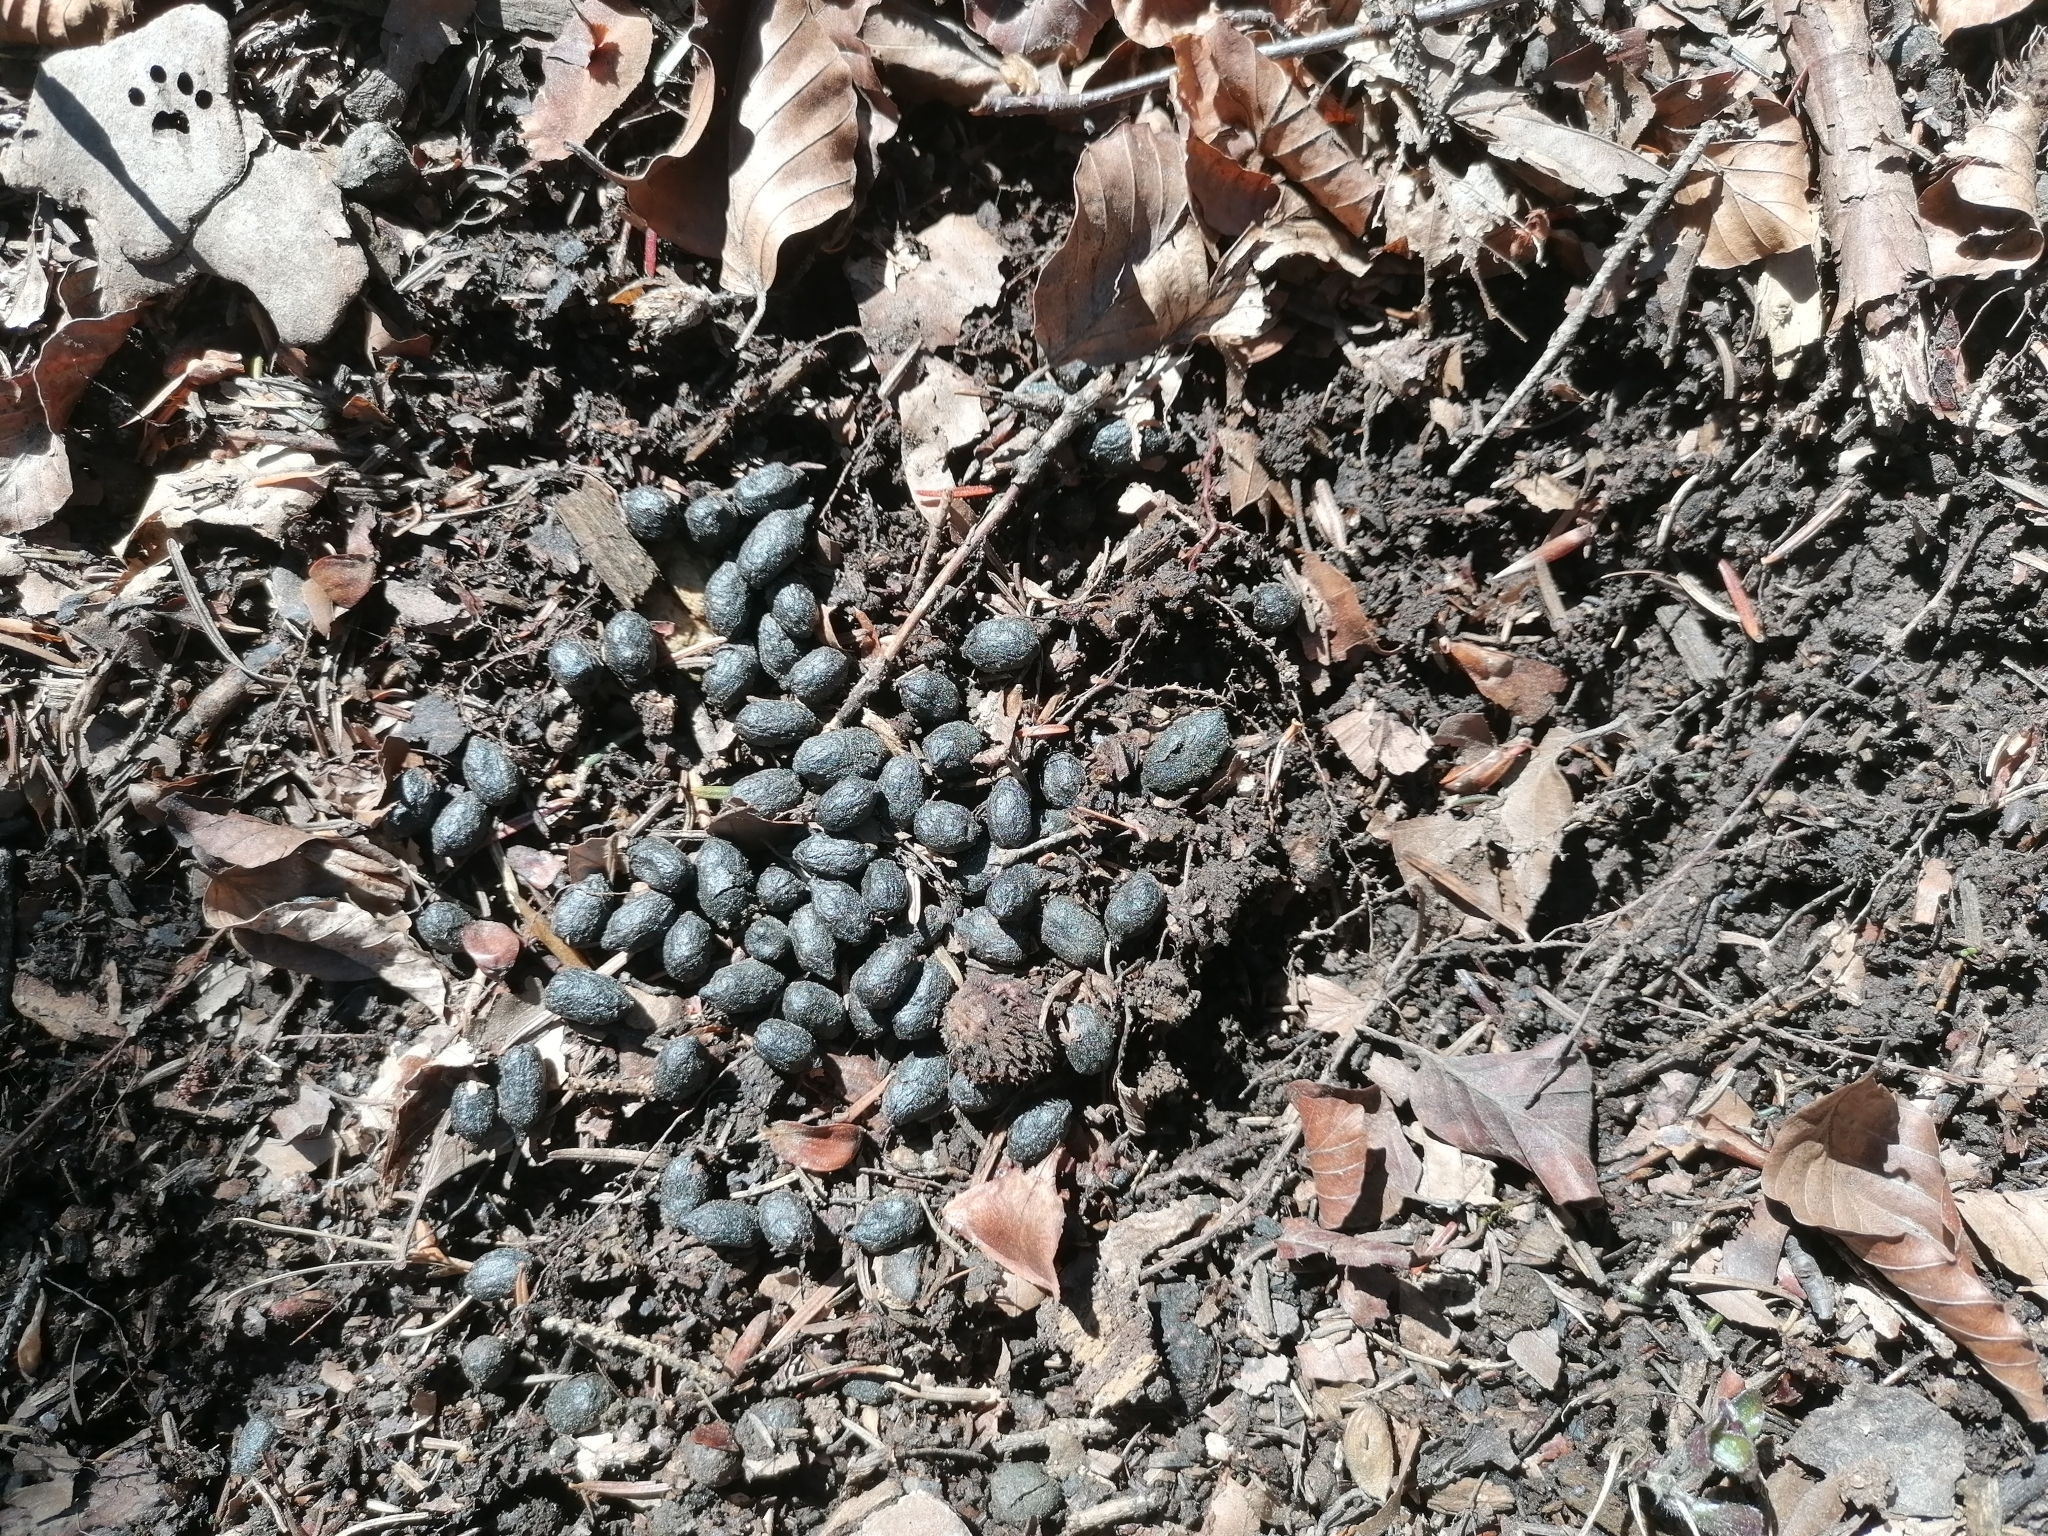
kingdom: Animalia
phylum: Chordata
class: Mammalia
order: Artiodactyla
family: Bovidae
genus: Rupicapra
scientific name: Rupicapra rupicapra
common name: Chamois
